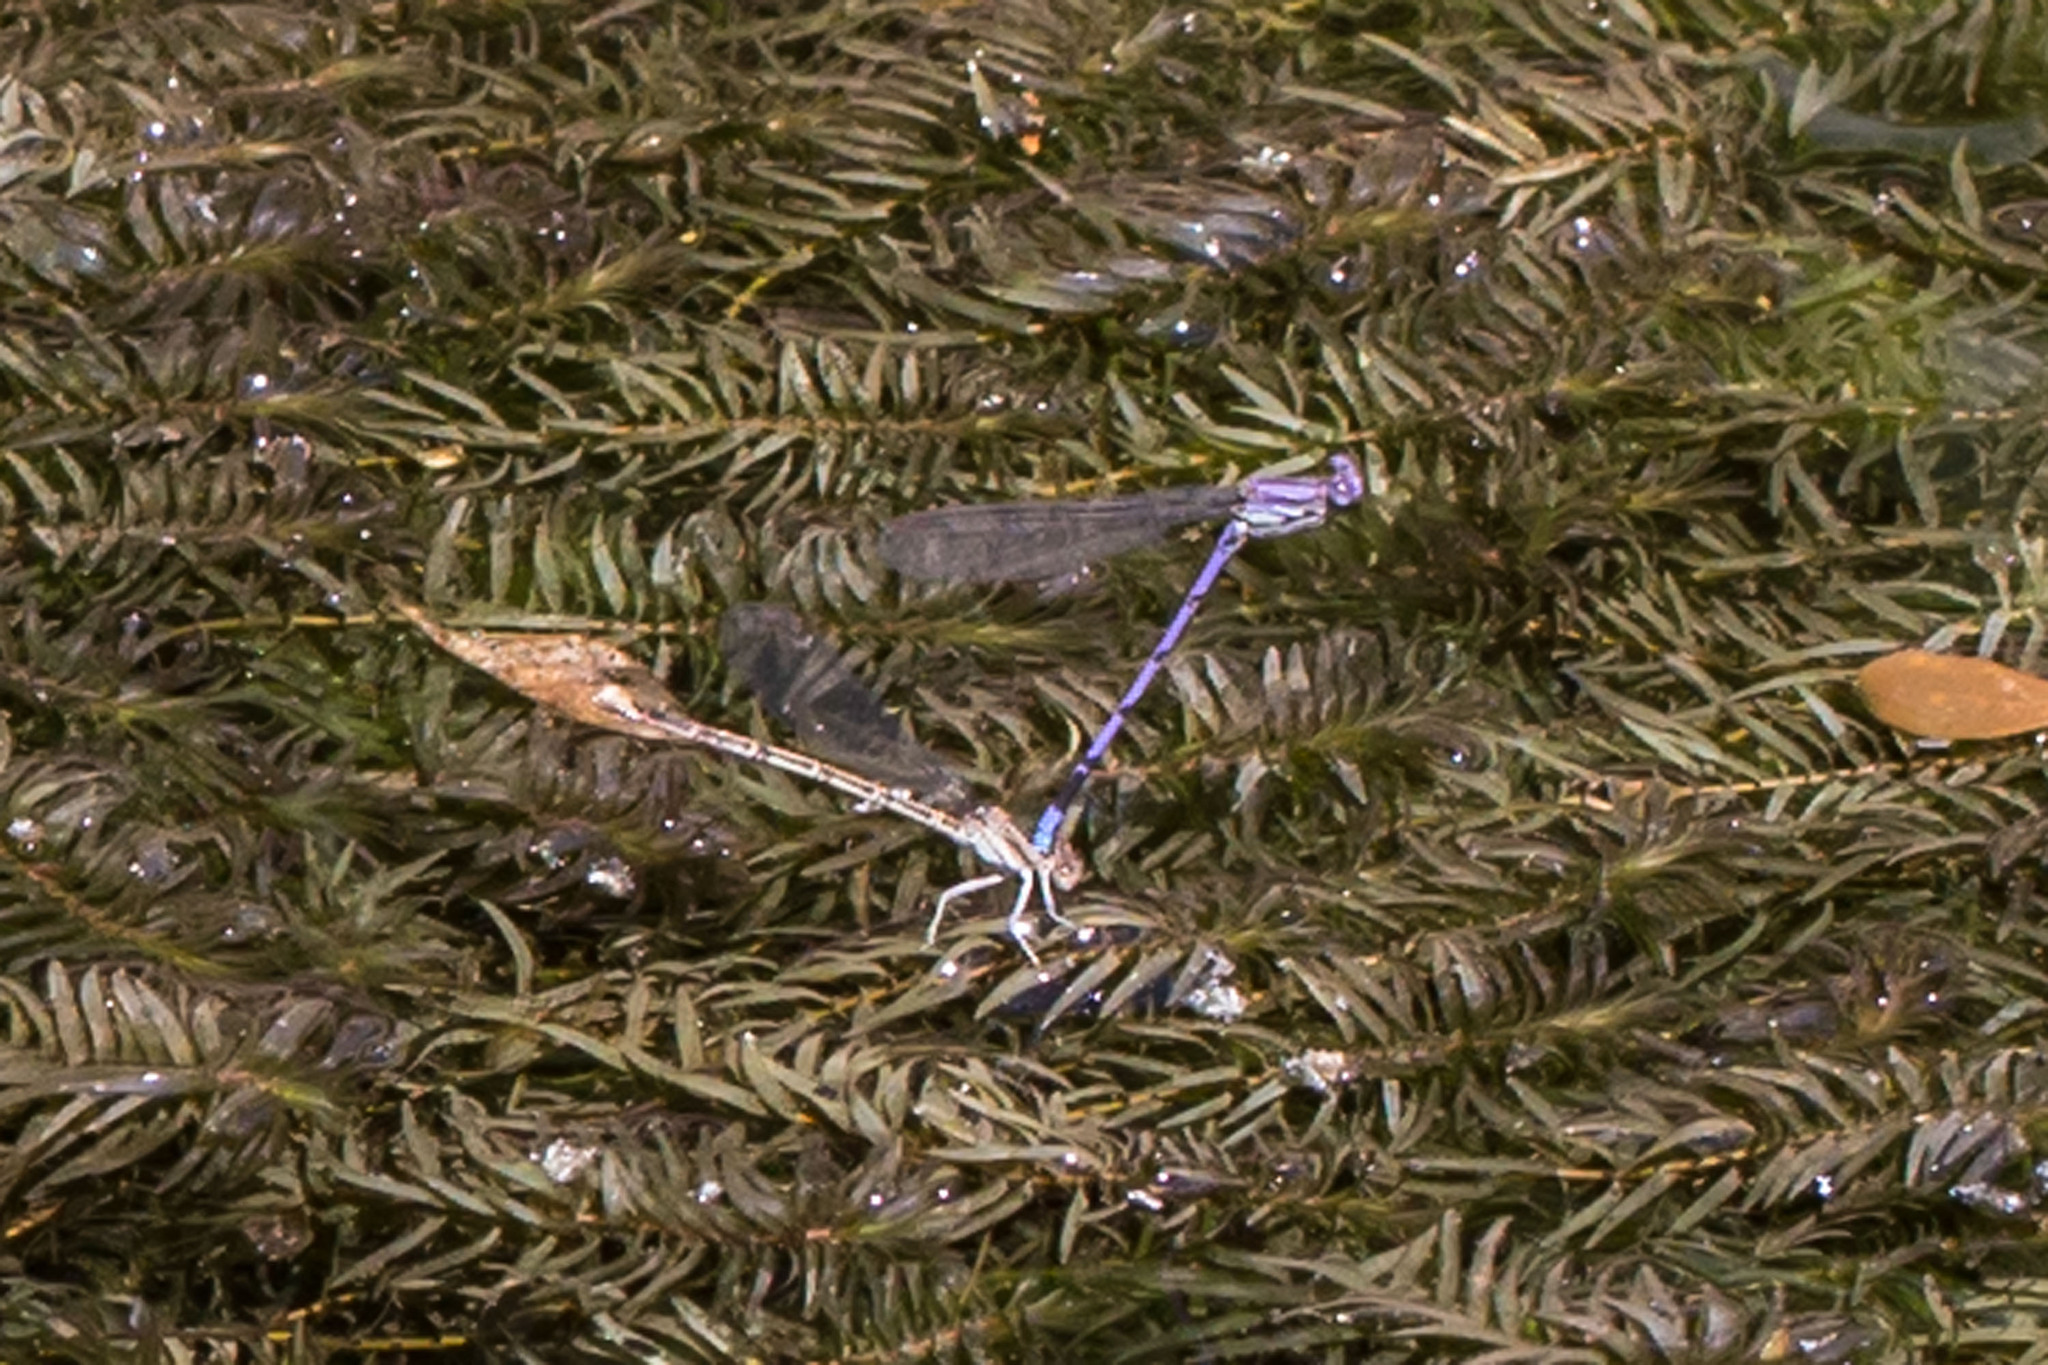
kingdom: Animalia
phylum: Arthropoda
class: Insecta
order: Odonata
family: Coenagrionidae
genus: Argia
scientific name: Argia fumipennis
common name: Variable dancer
